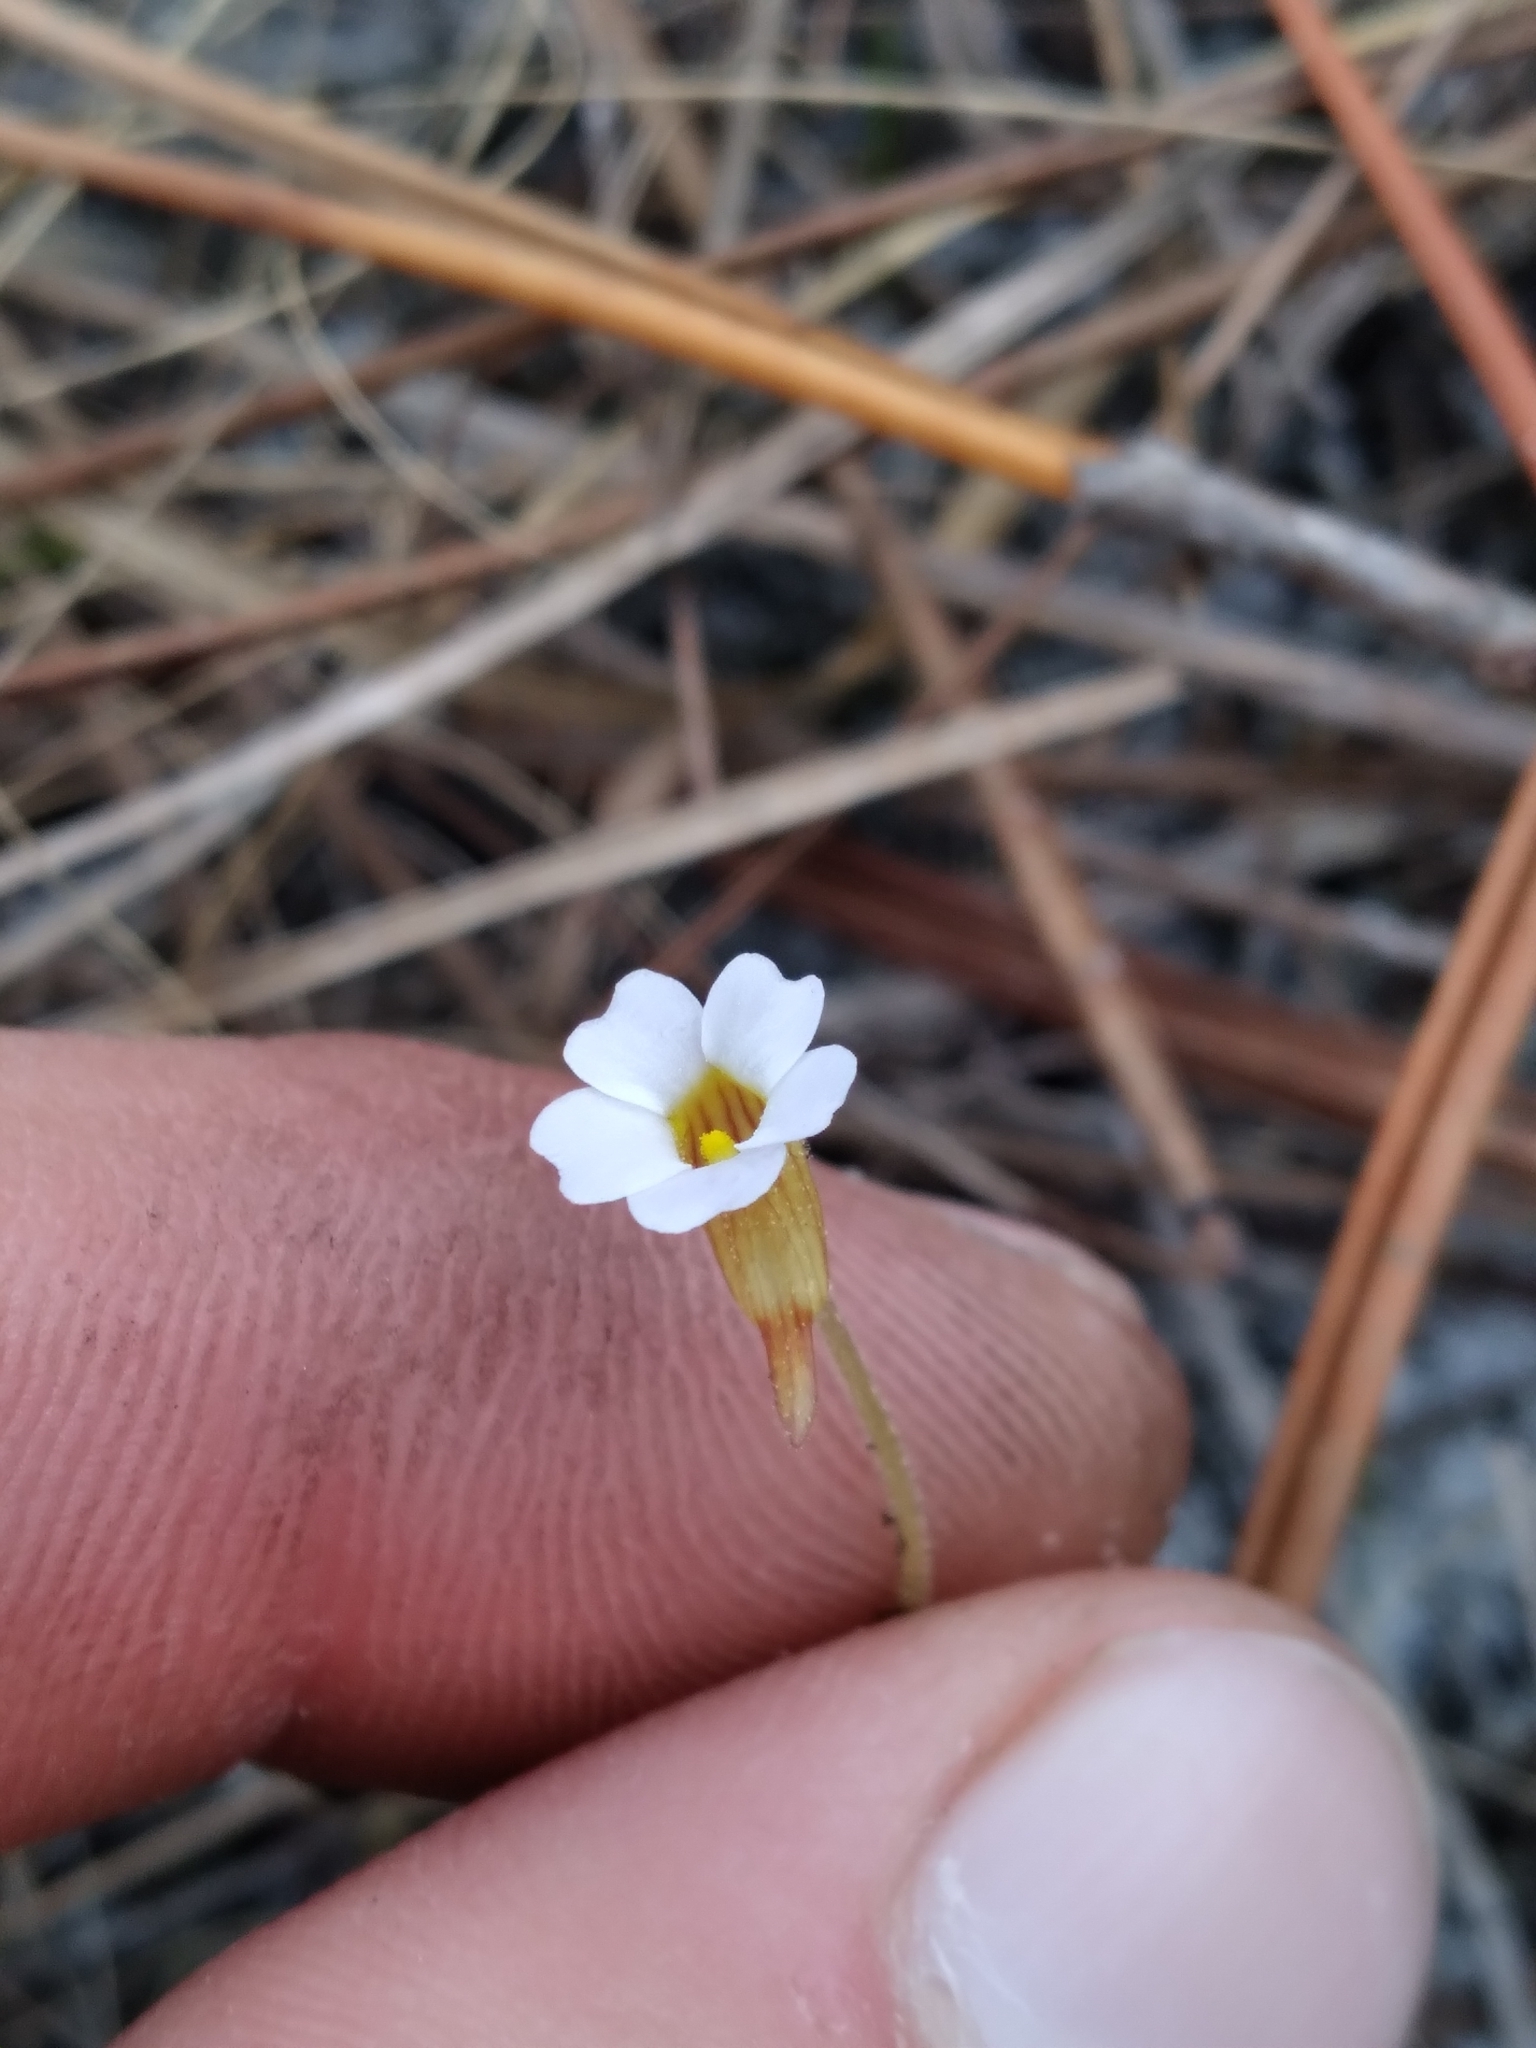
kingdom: Plantae
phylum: Tracheophyta
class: Magnoliopsida
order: Lamiales
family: Lentibulariaceae
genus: Pinguicula
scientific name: Pinguicula pumila
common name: Small butterwort
